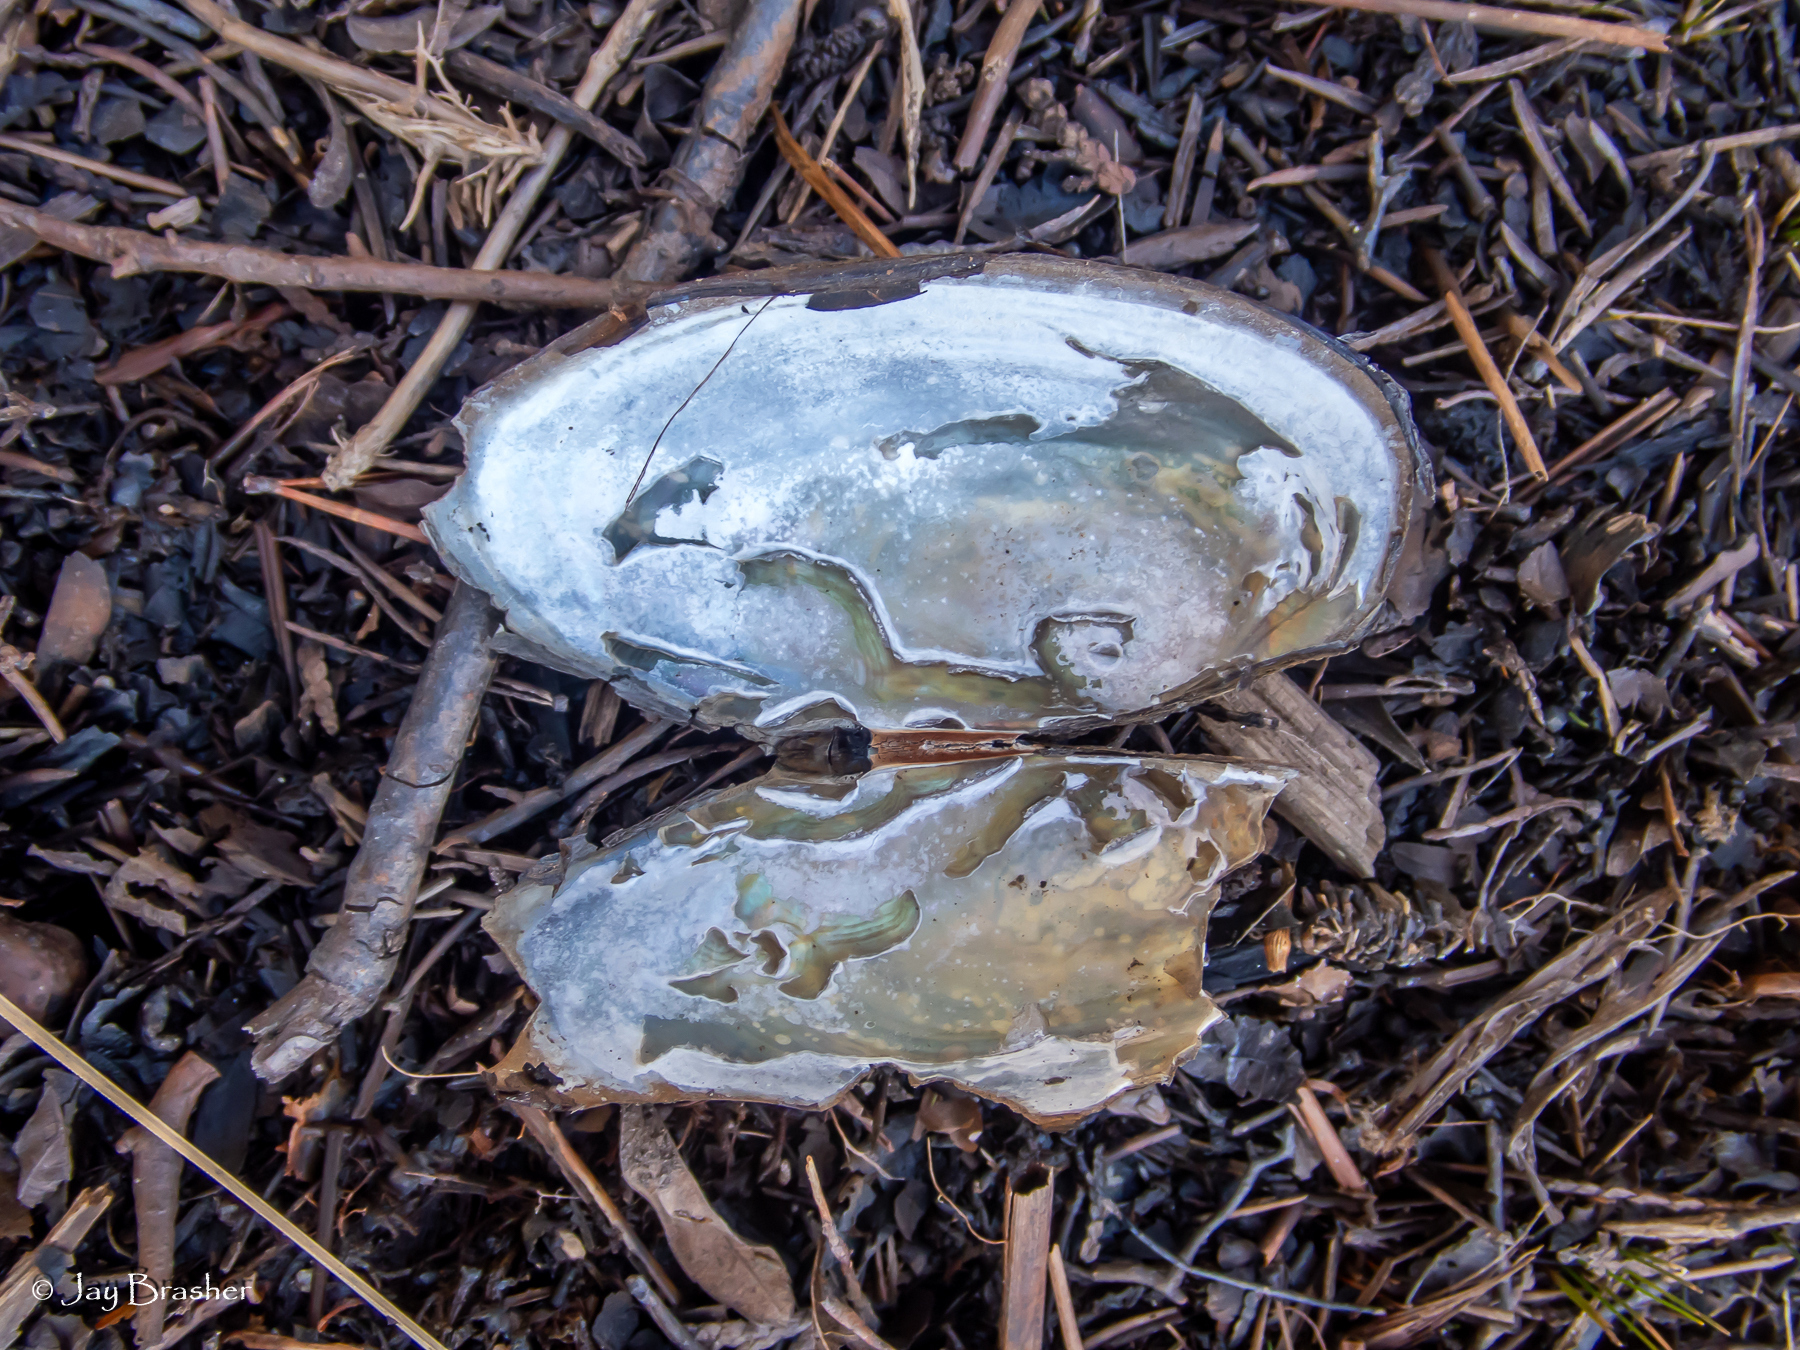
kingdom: Animalia
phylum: Mollusca
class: Bivalvia
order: Unionida
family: Unionidae
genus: Pyganodon
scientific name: Pyganodon grandis
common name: Giant floater
